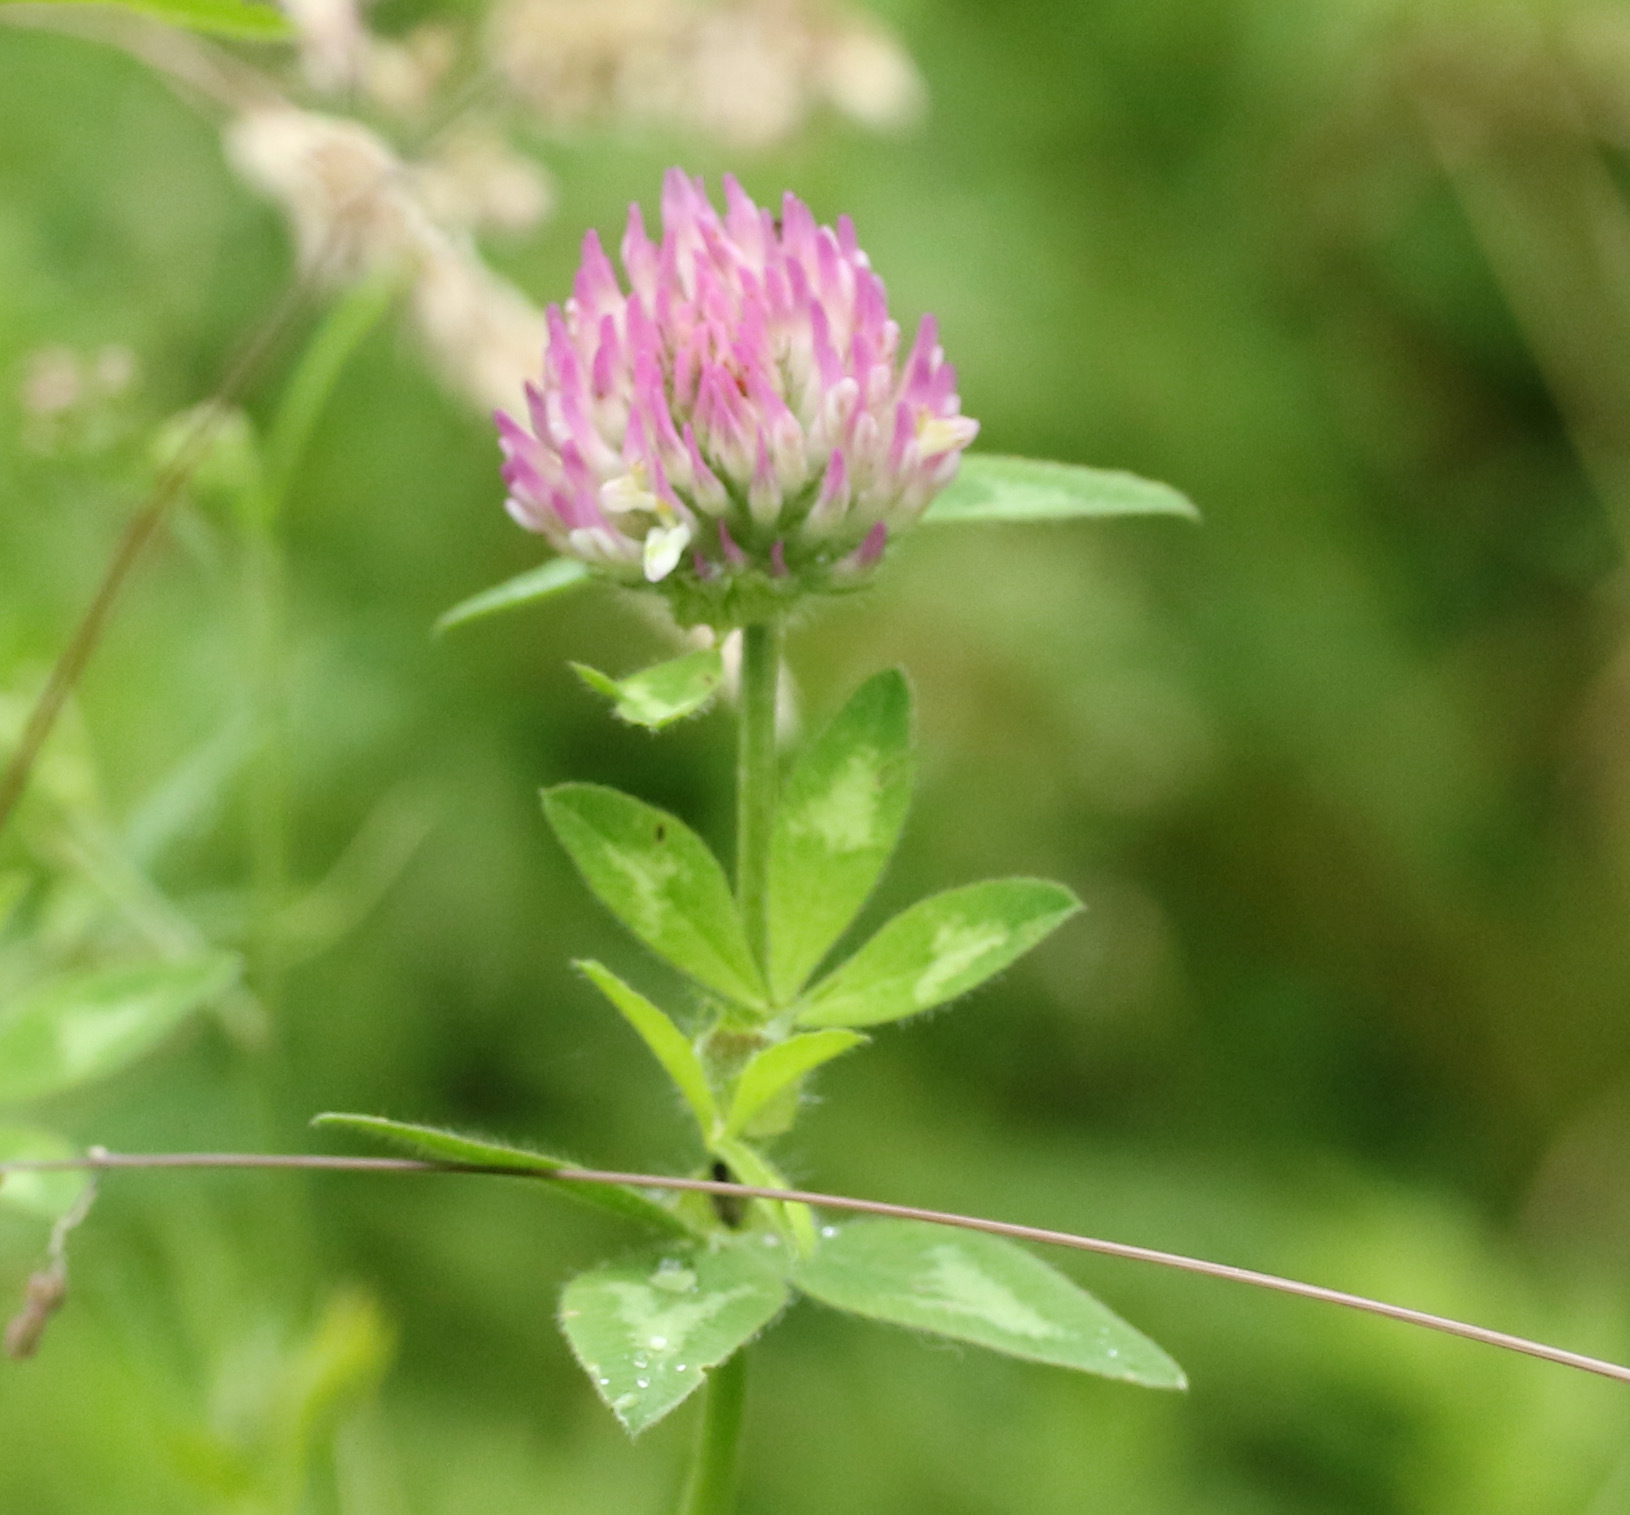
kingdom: Plantae
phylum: Tracheophyta
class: Magnoliopsida
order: Fabales
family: Fabaceae
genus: Trifolium
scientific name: Trifolium pratense
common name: Red clover
